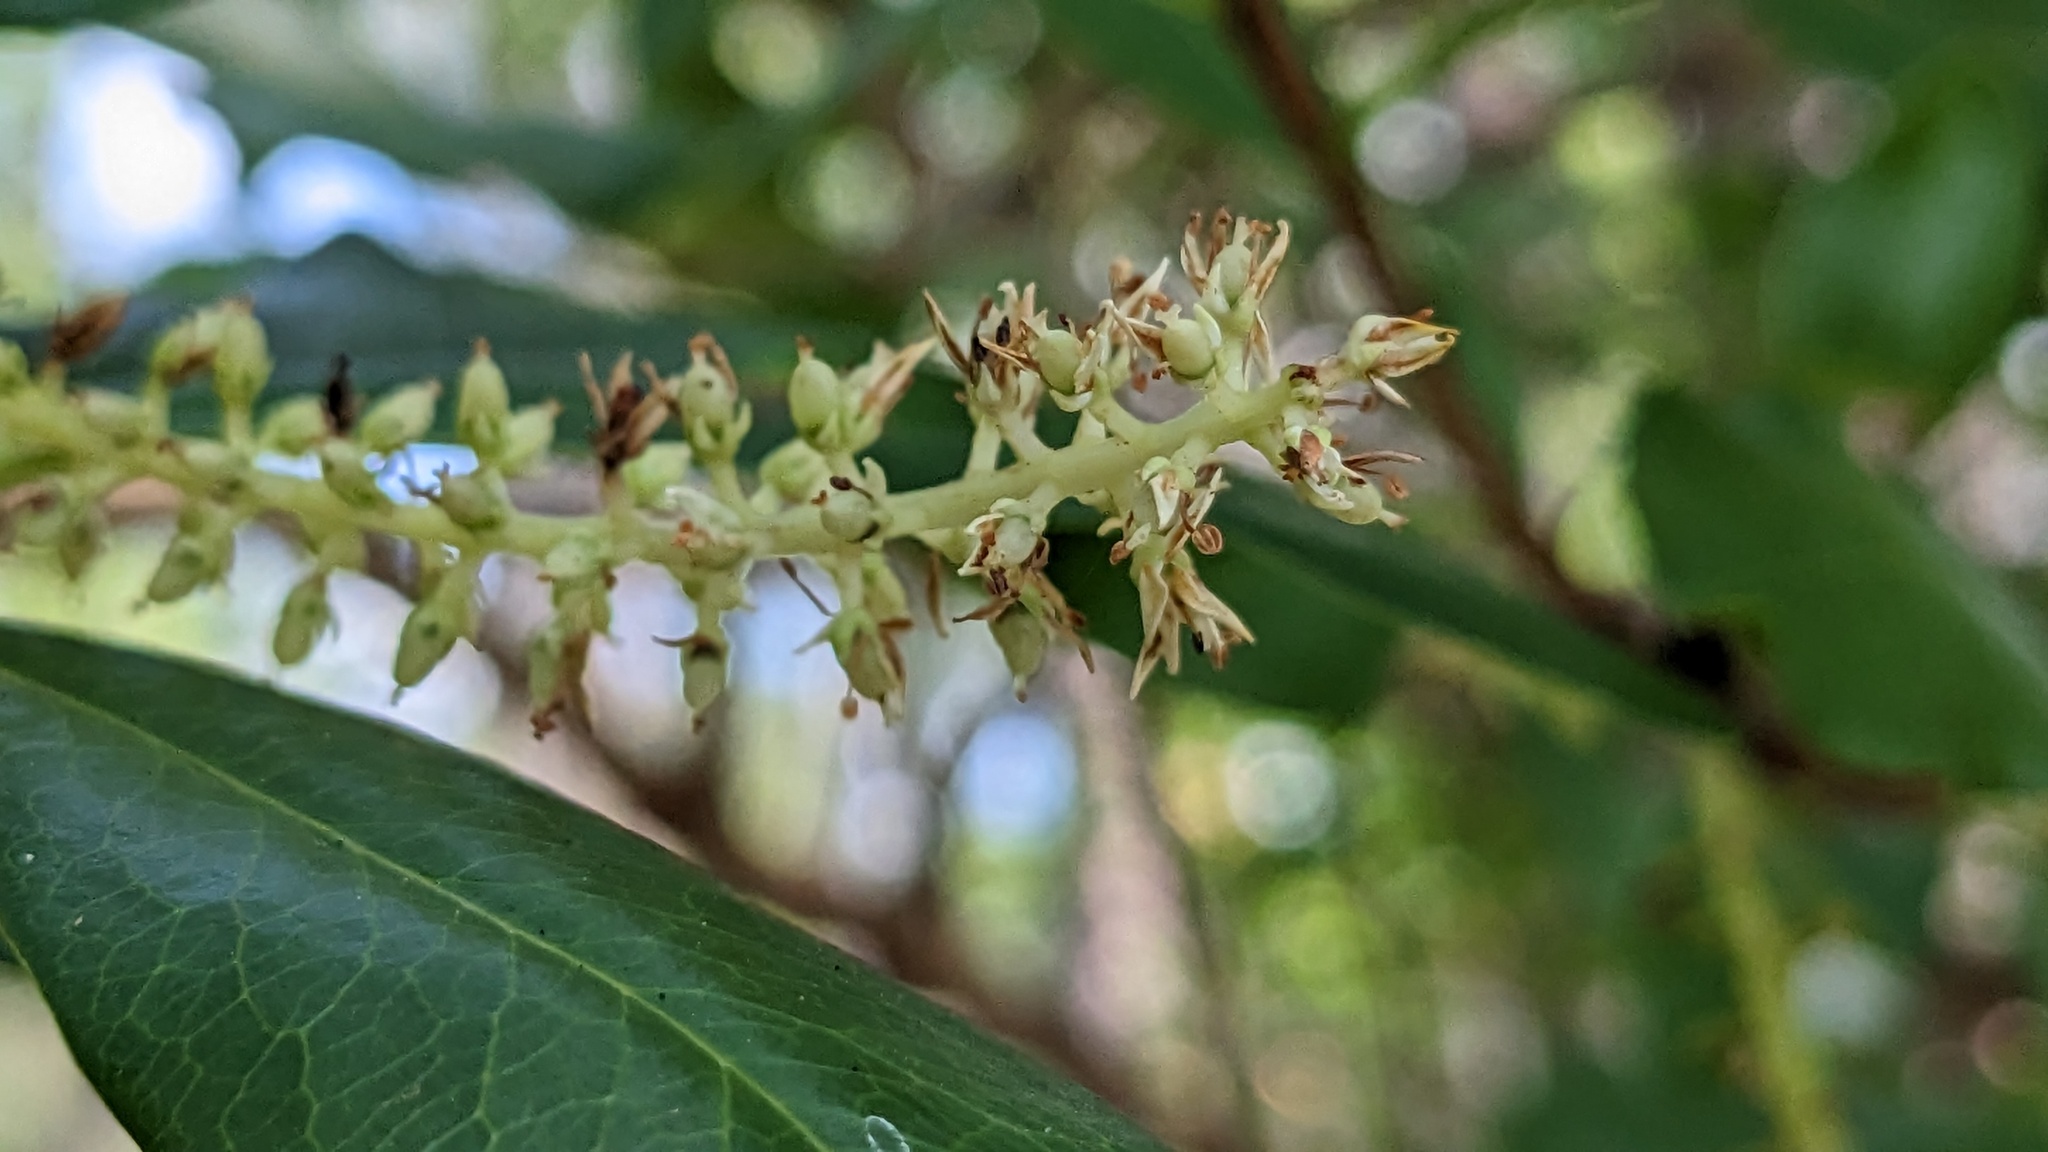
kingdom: Plantae
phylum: Tracheophyta
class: Magnoliopsida
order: Ericales
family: Cyrillaceae
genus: Cyrilla
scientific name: Cyrilla racemiflora
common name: Black titi
